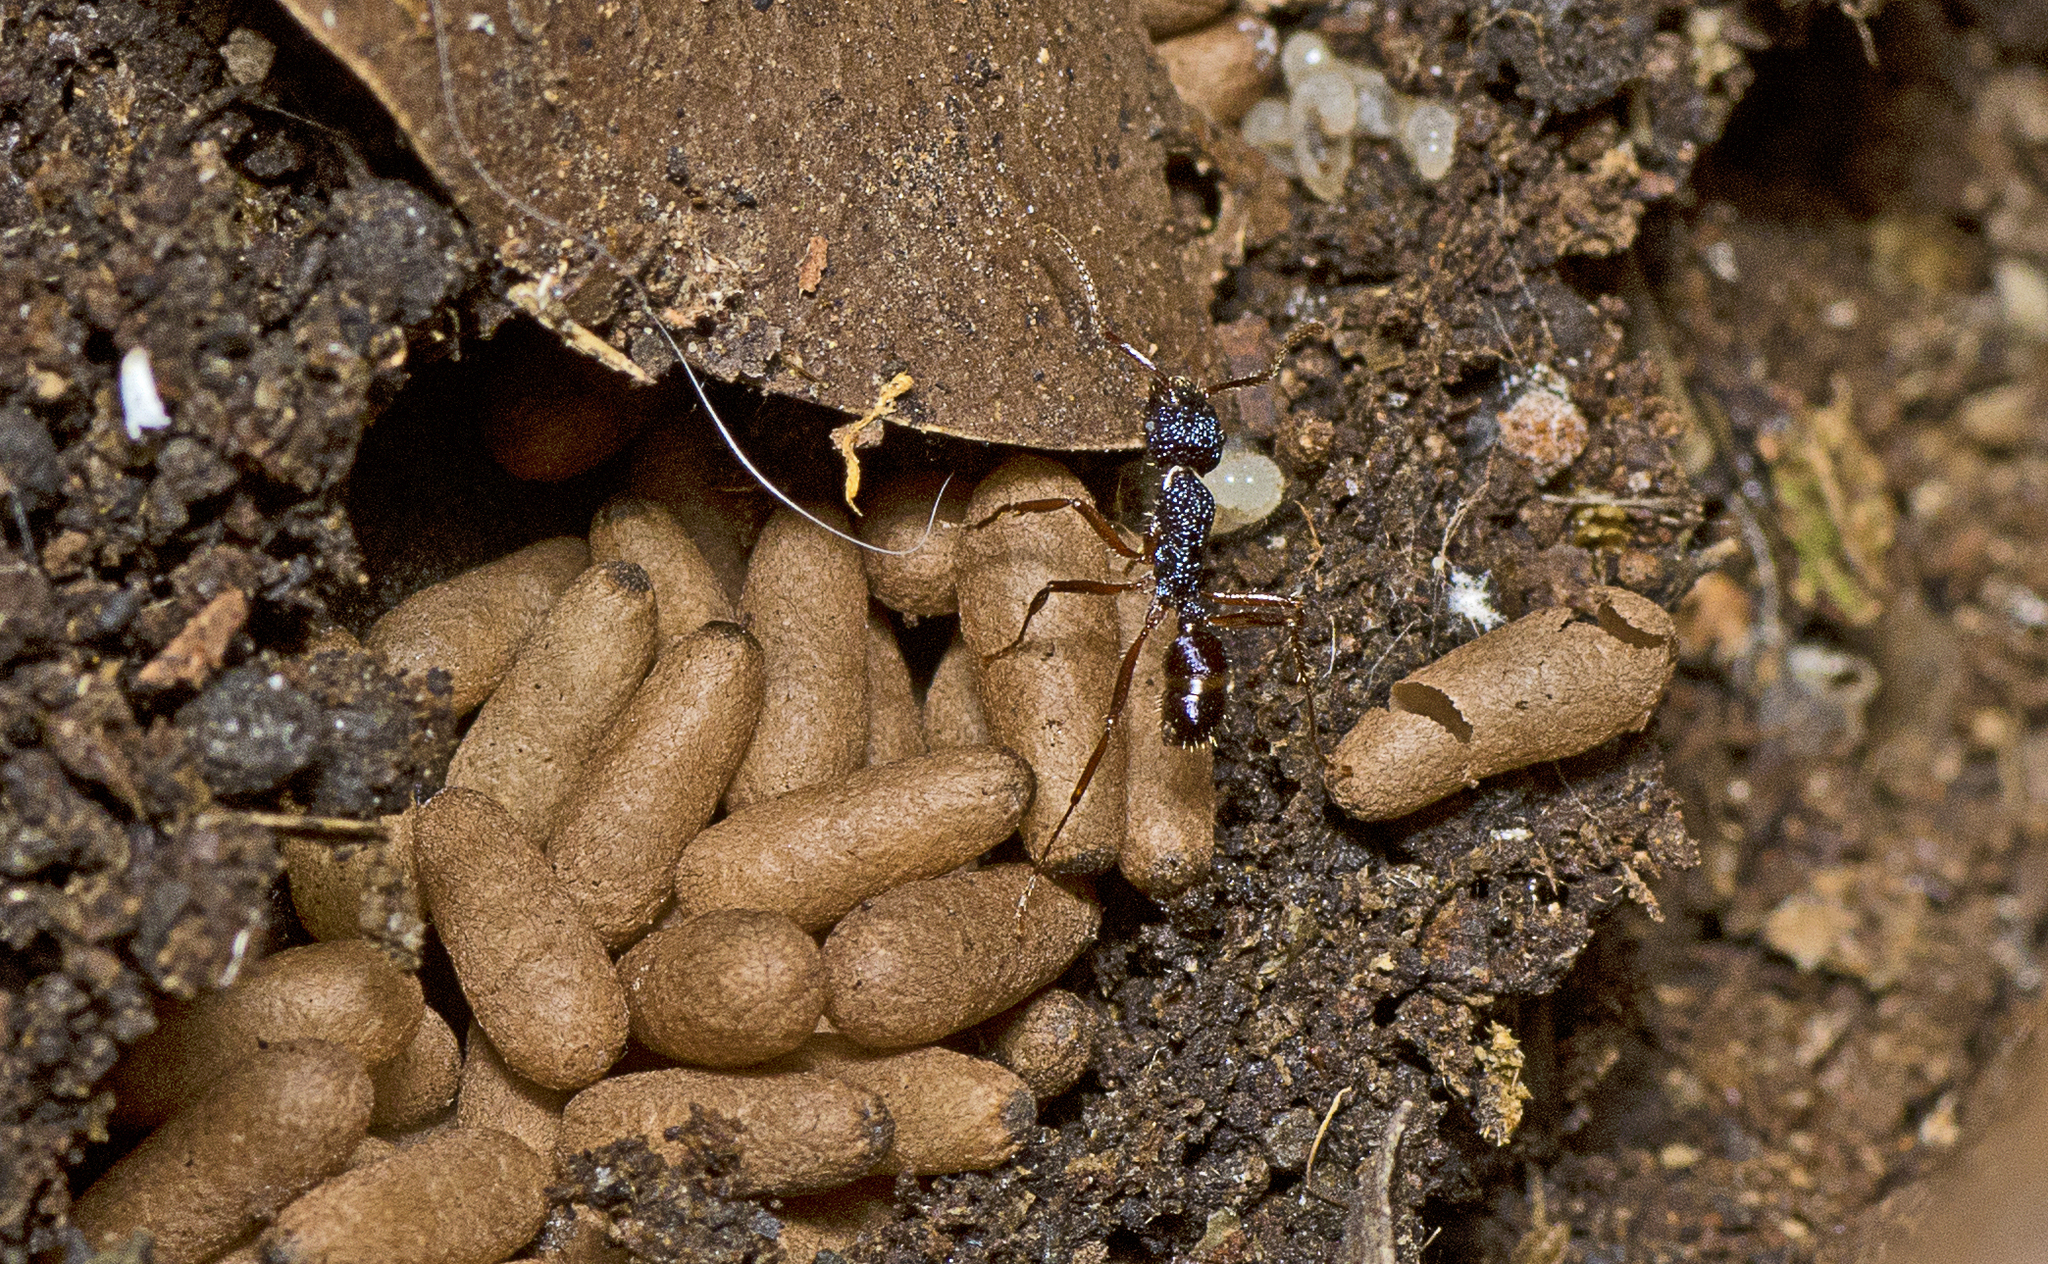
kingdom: Animalia
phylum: Arthropoda
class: Insecta
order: Hymenoptera
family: Formicidae
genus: Rhytidoponera
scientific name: Rhytidoponera chalybaea
